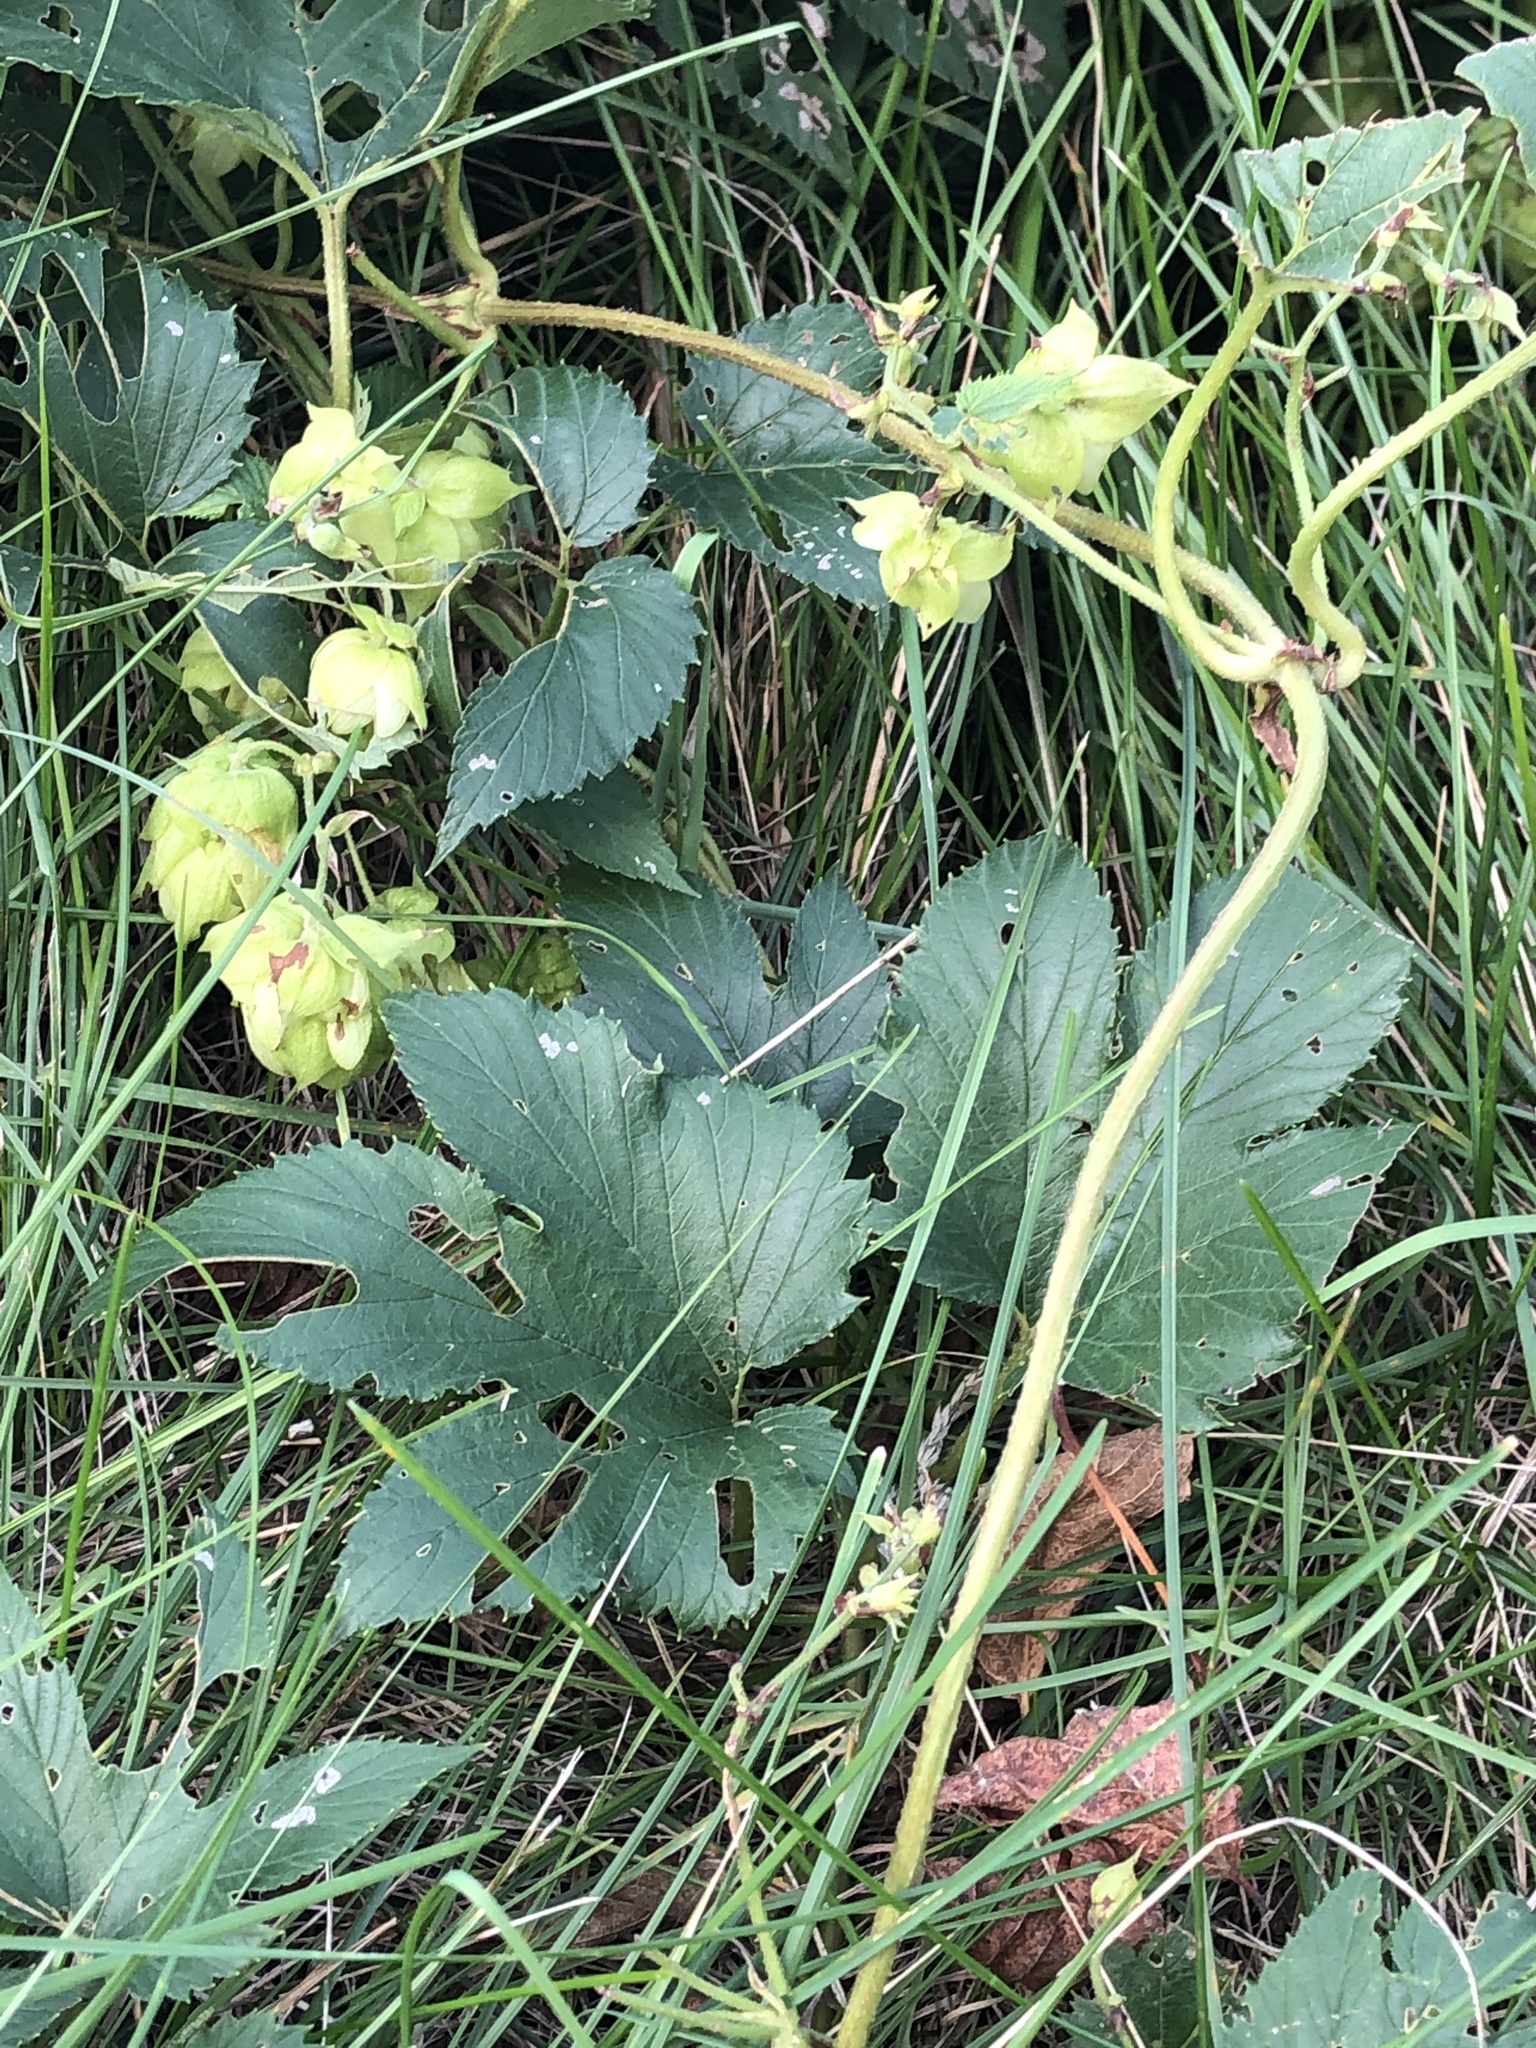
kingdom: Plantae
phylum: Tracheophyta
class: Magnoliopsida
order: Rosales
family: Cannabaceae
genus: Humulus
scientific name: Humulus lupulus
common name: Hop
